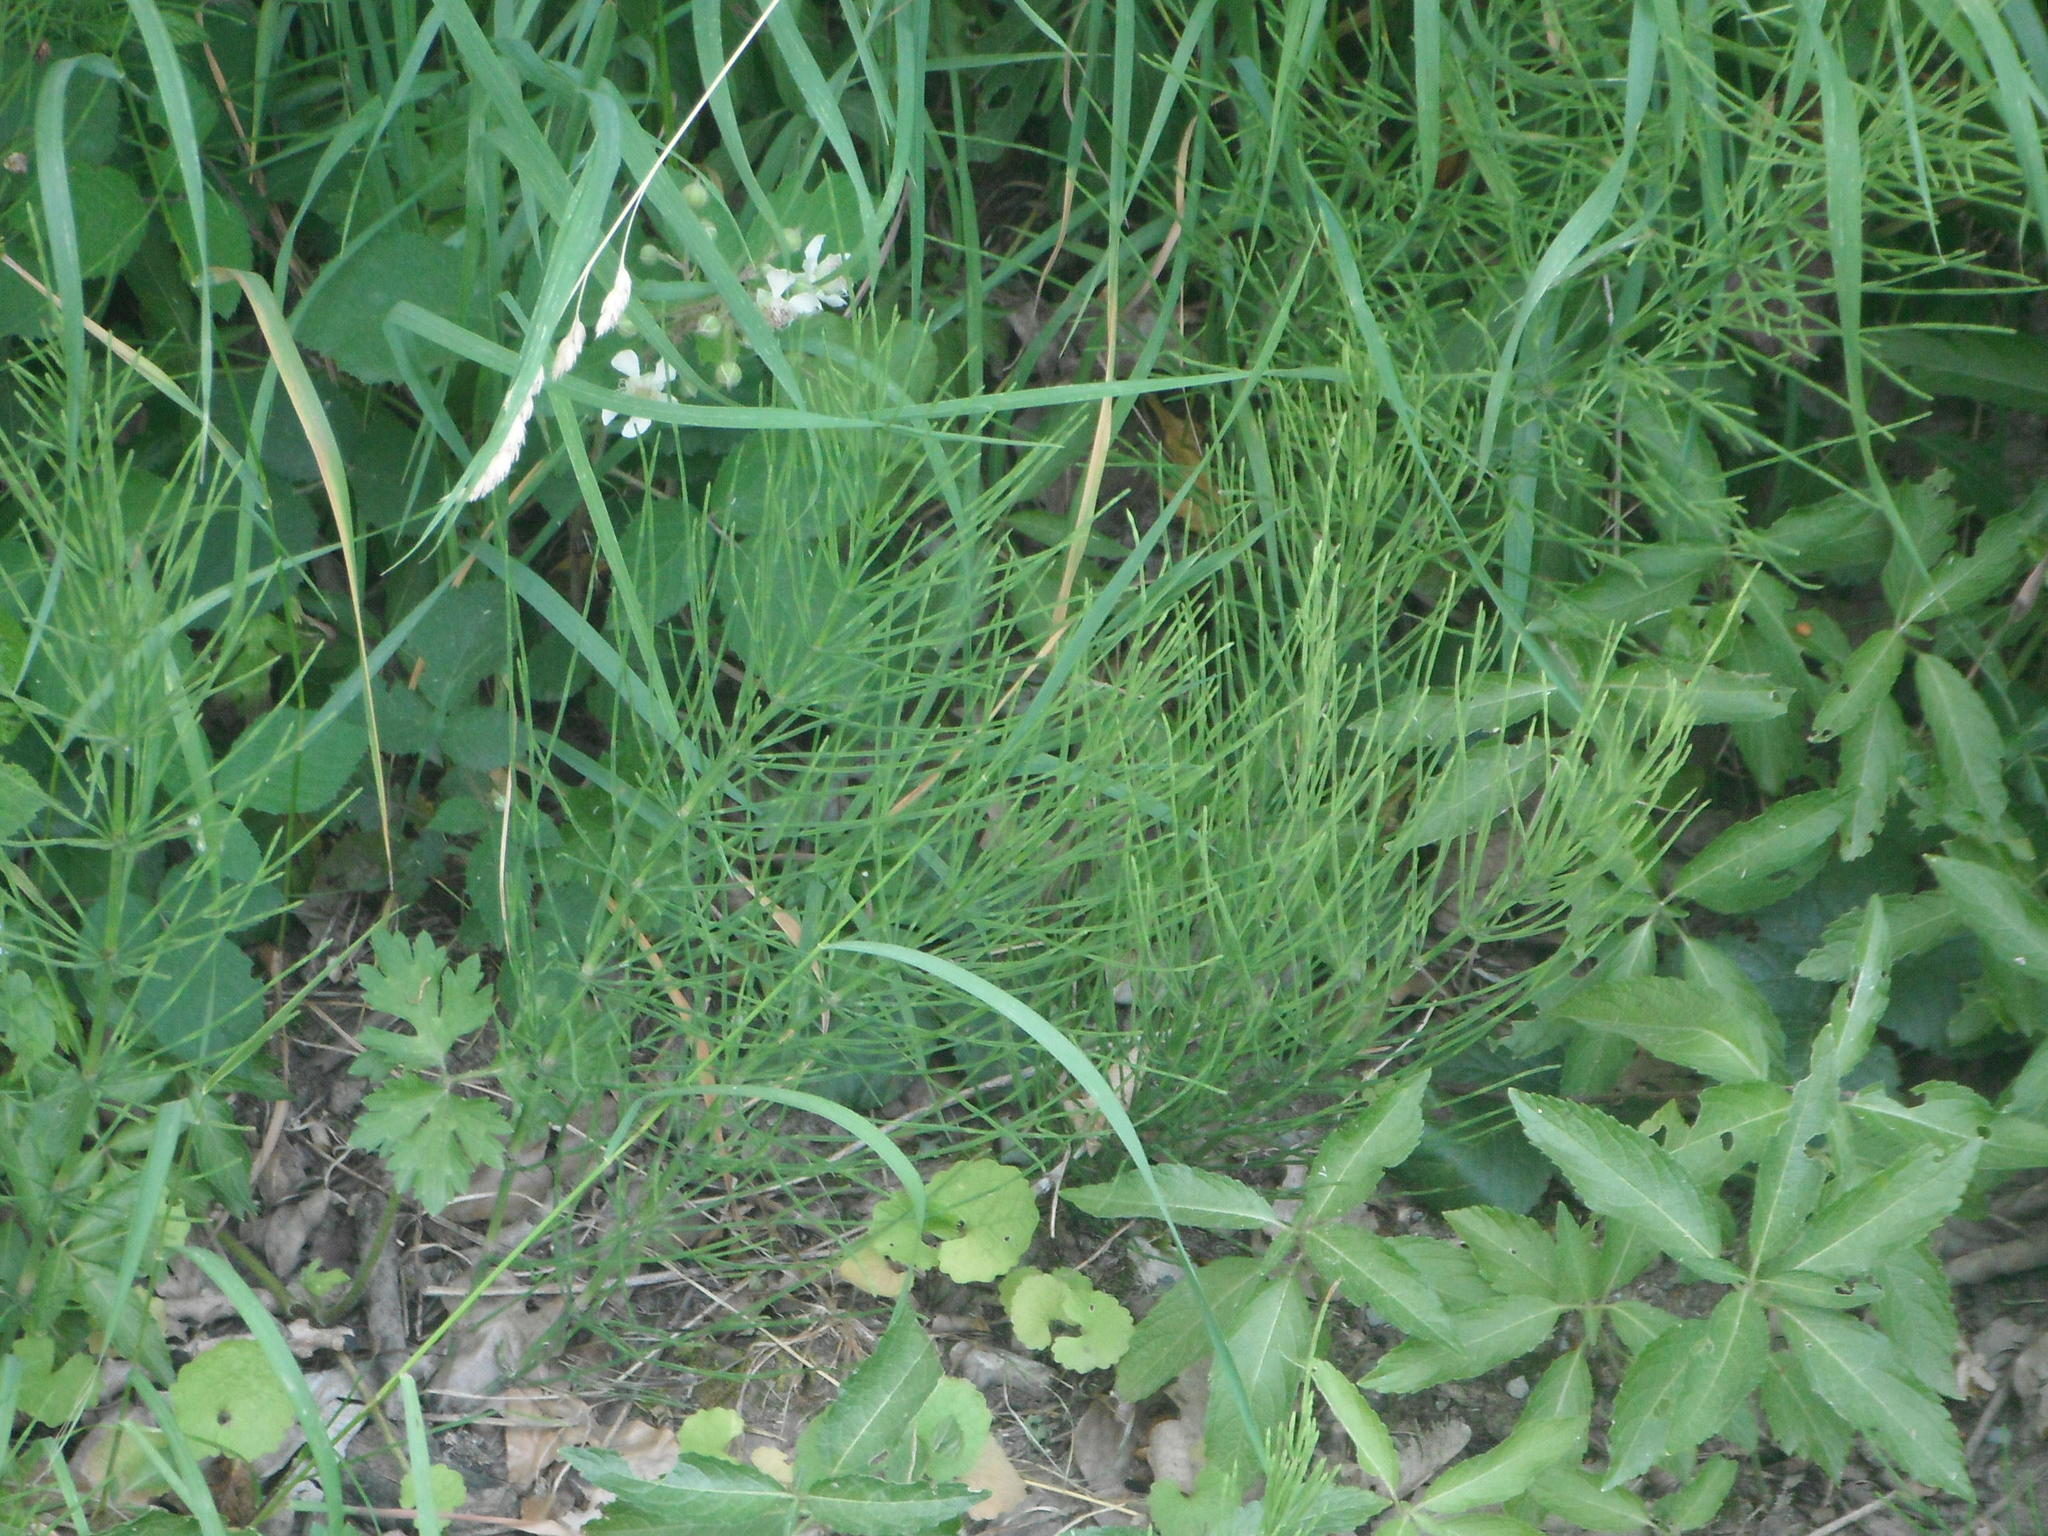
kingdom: Plantae
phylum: Tracheophyta
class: Polypodiopsida
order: Equisetales
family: Equisetaceae
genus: Equisetum
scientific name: Equisetum arvense
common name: Field horsetail
